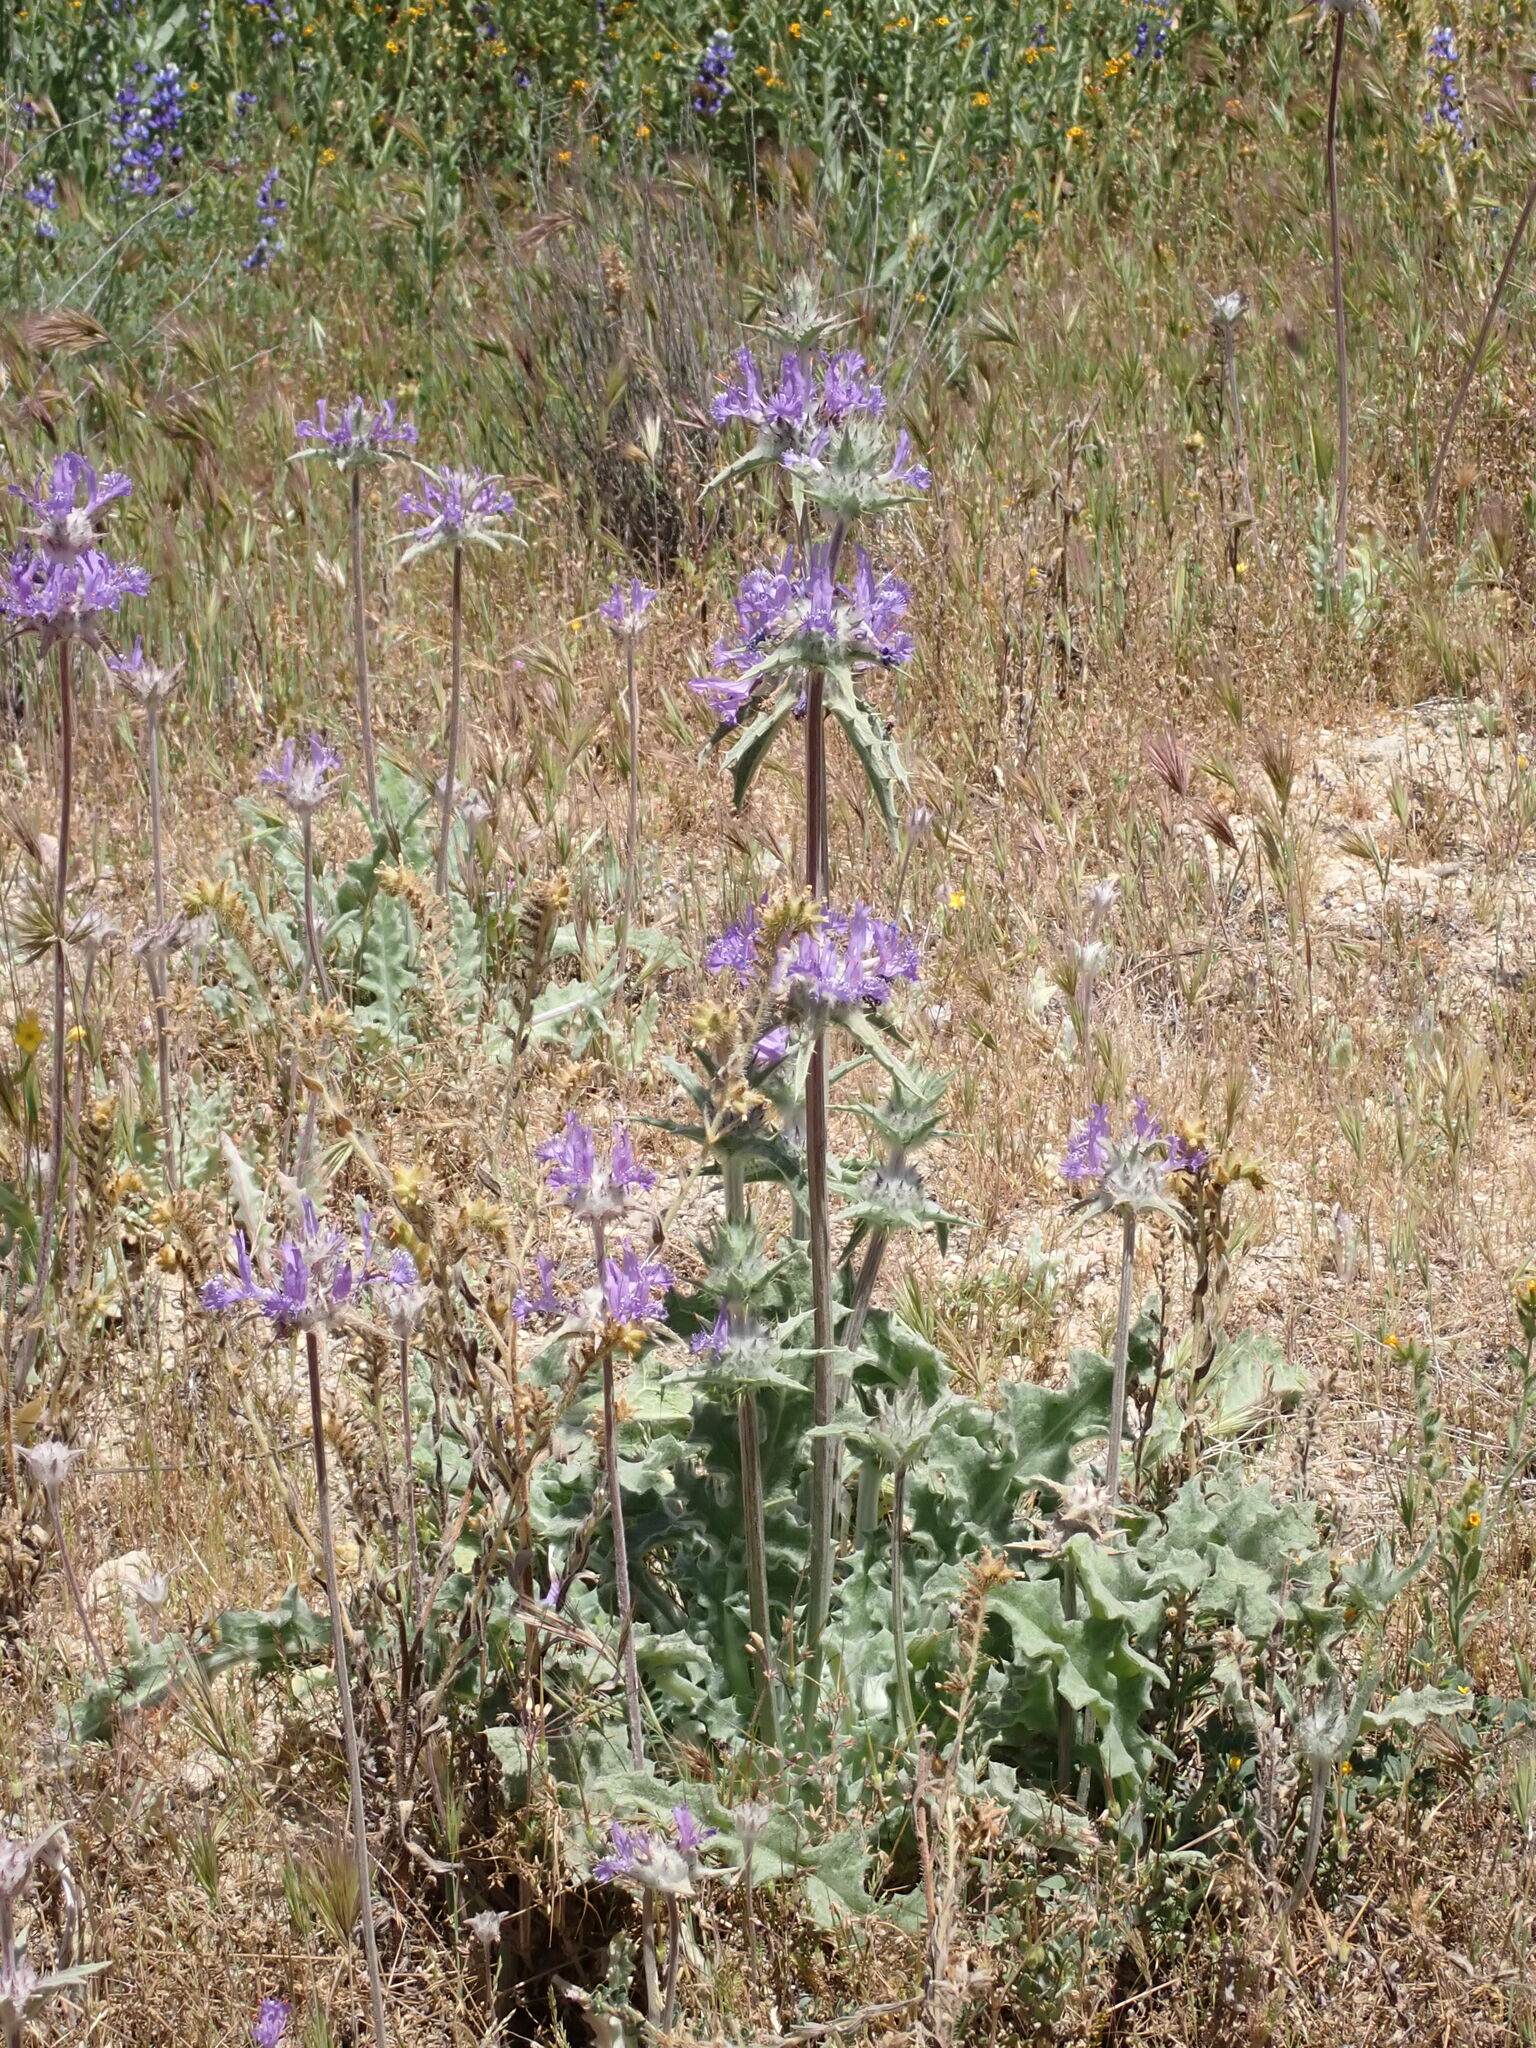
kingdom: Plantae
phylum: Tracheophyta
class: Magnoliopsida
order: Lamiales
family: Lamiaceae
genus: Salvia
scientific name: Salvia carduacea
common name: Thistle sage
